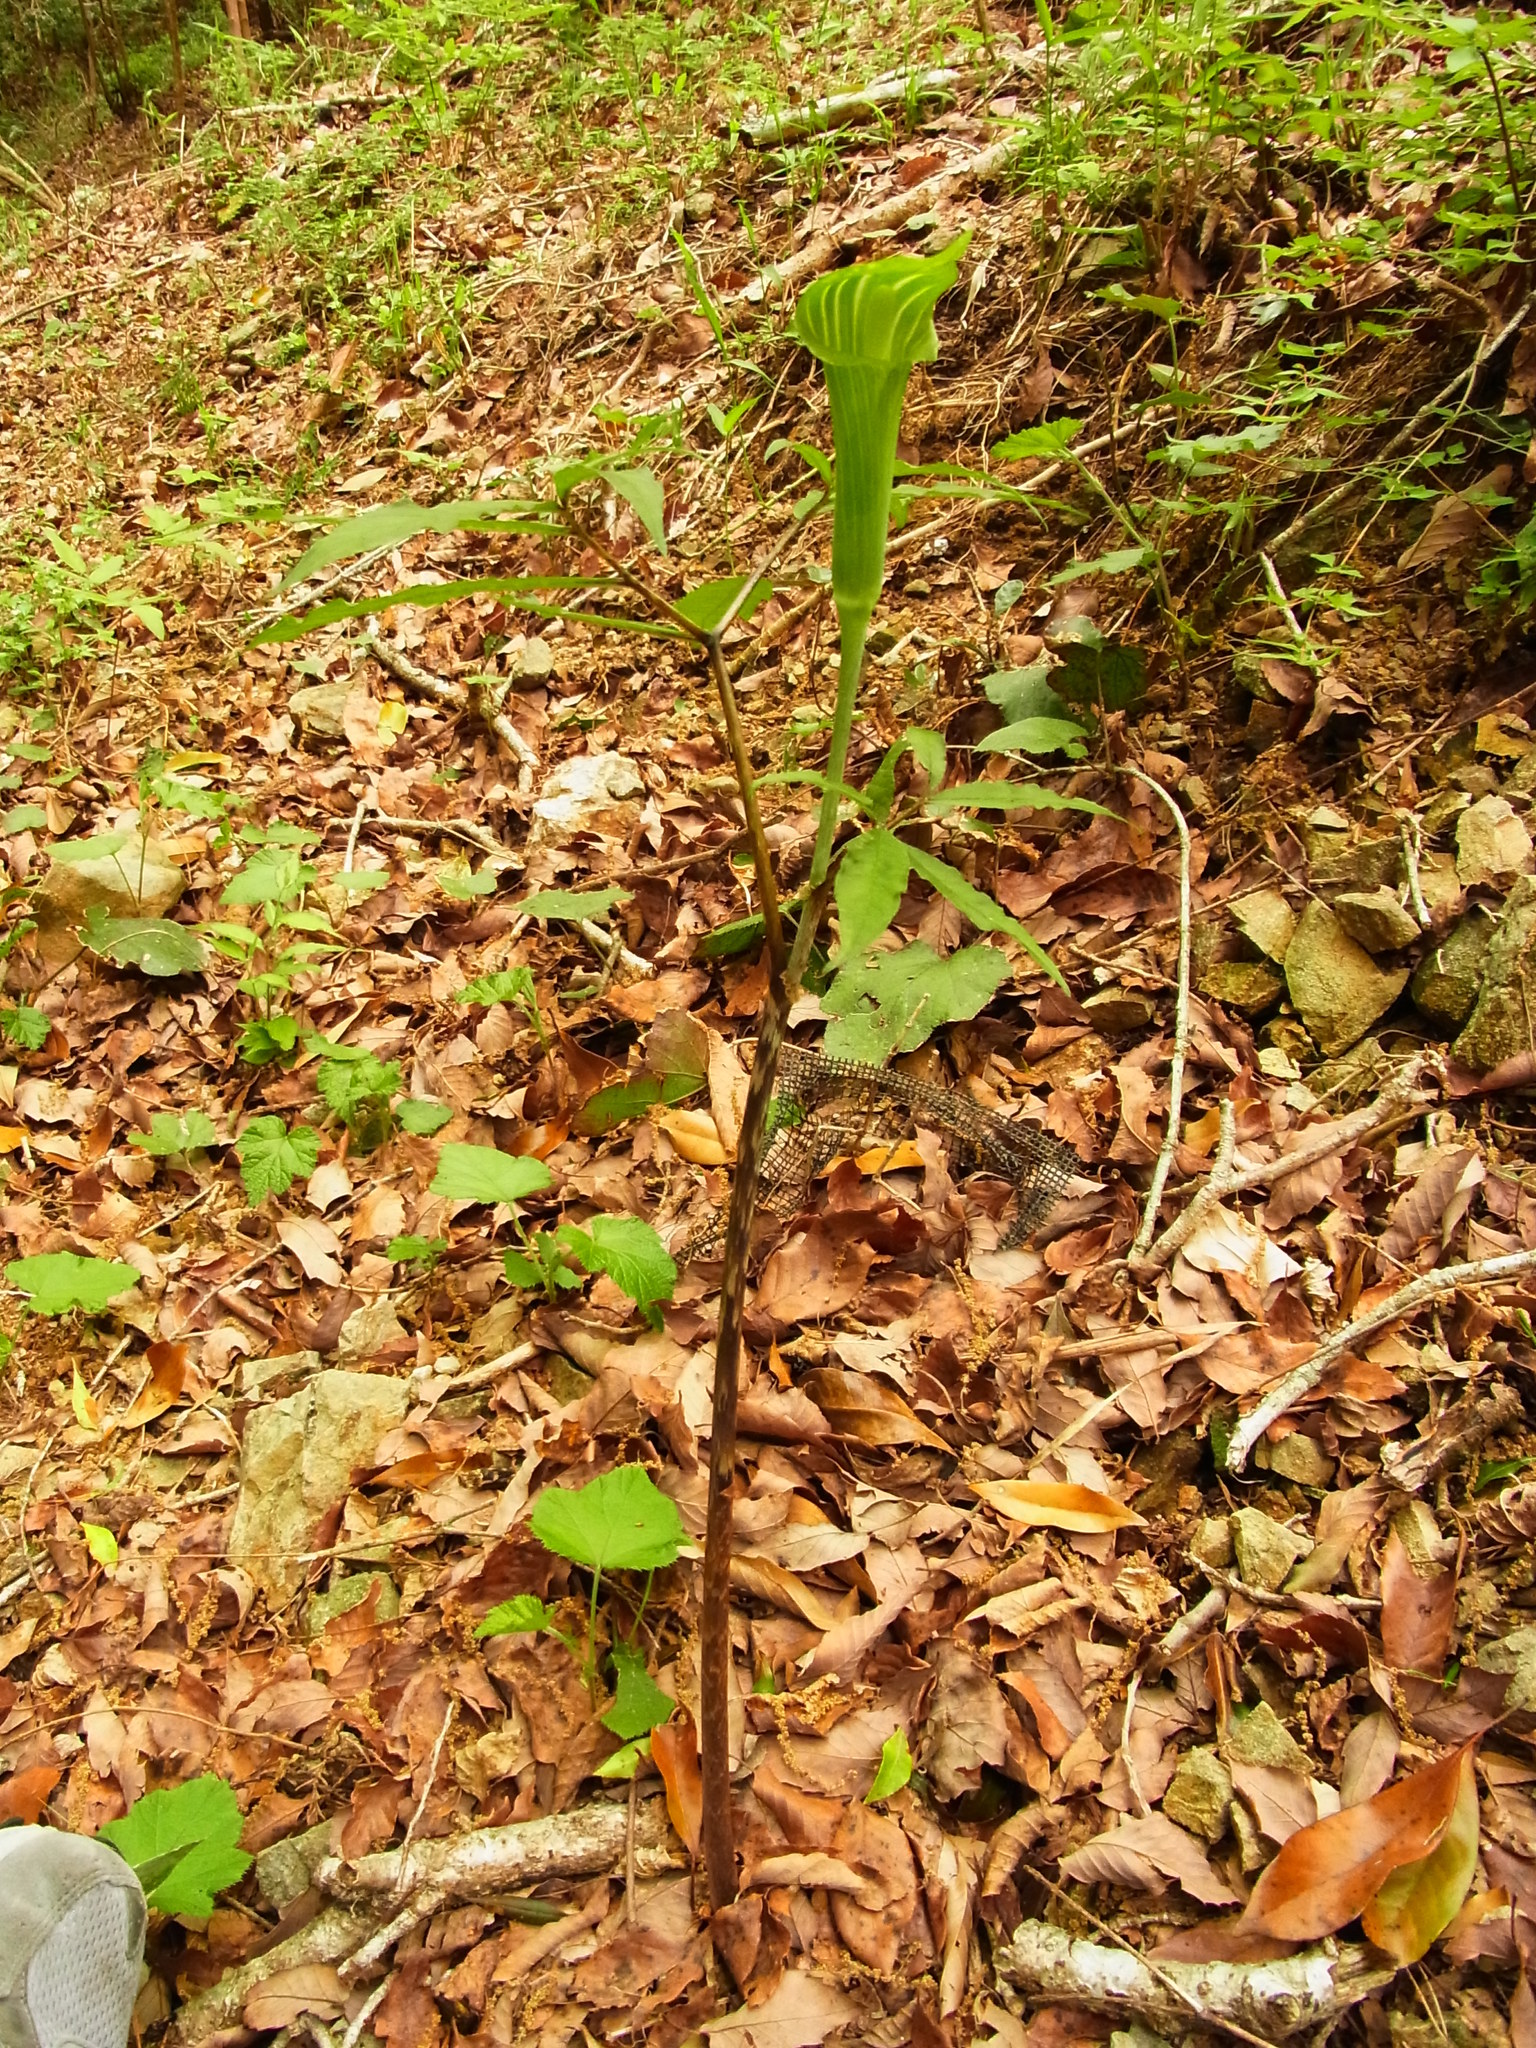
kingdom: Plantae
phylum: Tracheophyta
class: Liliopsida
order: Alismatales
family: Araceae
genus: Arisaema
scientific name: Arisaema japonicum
